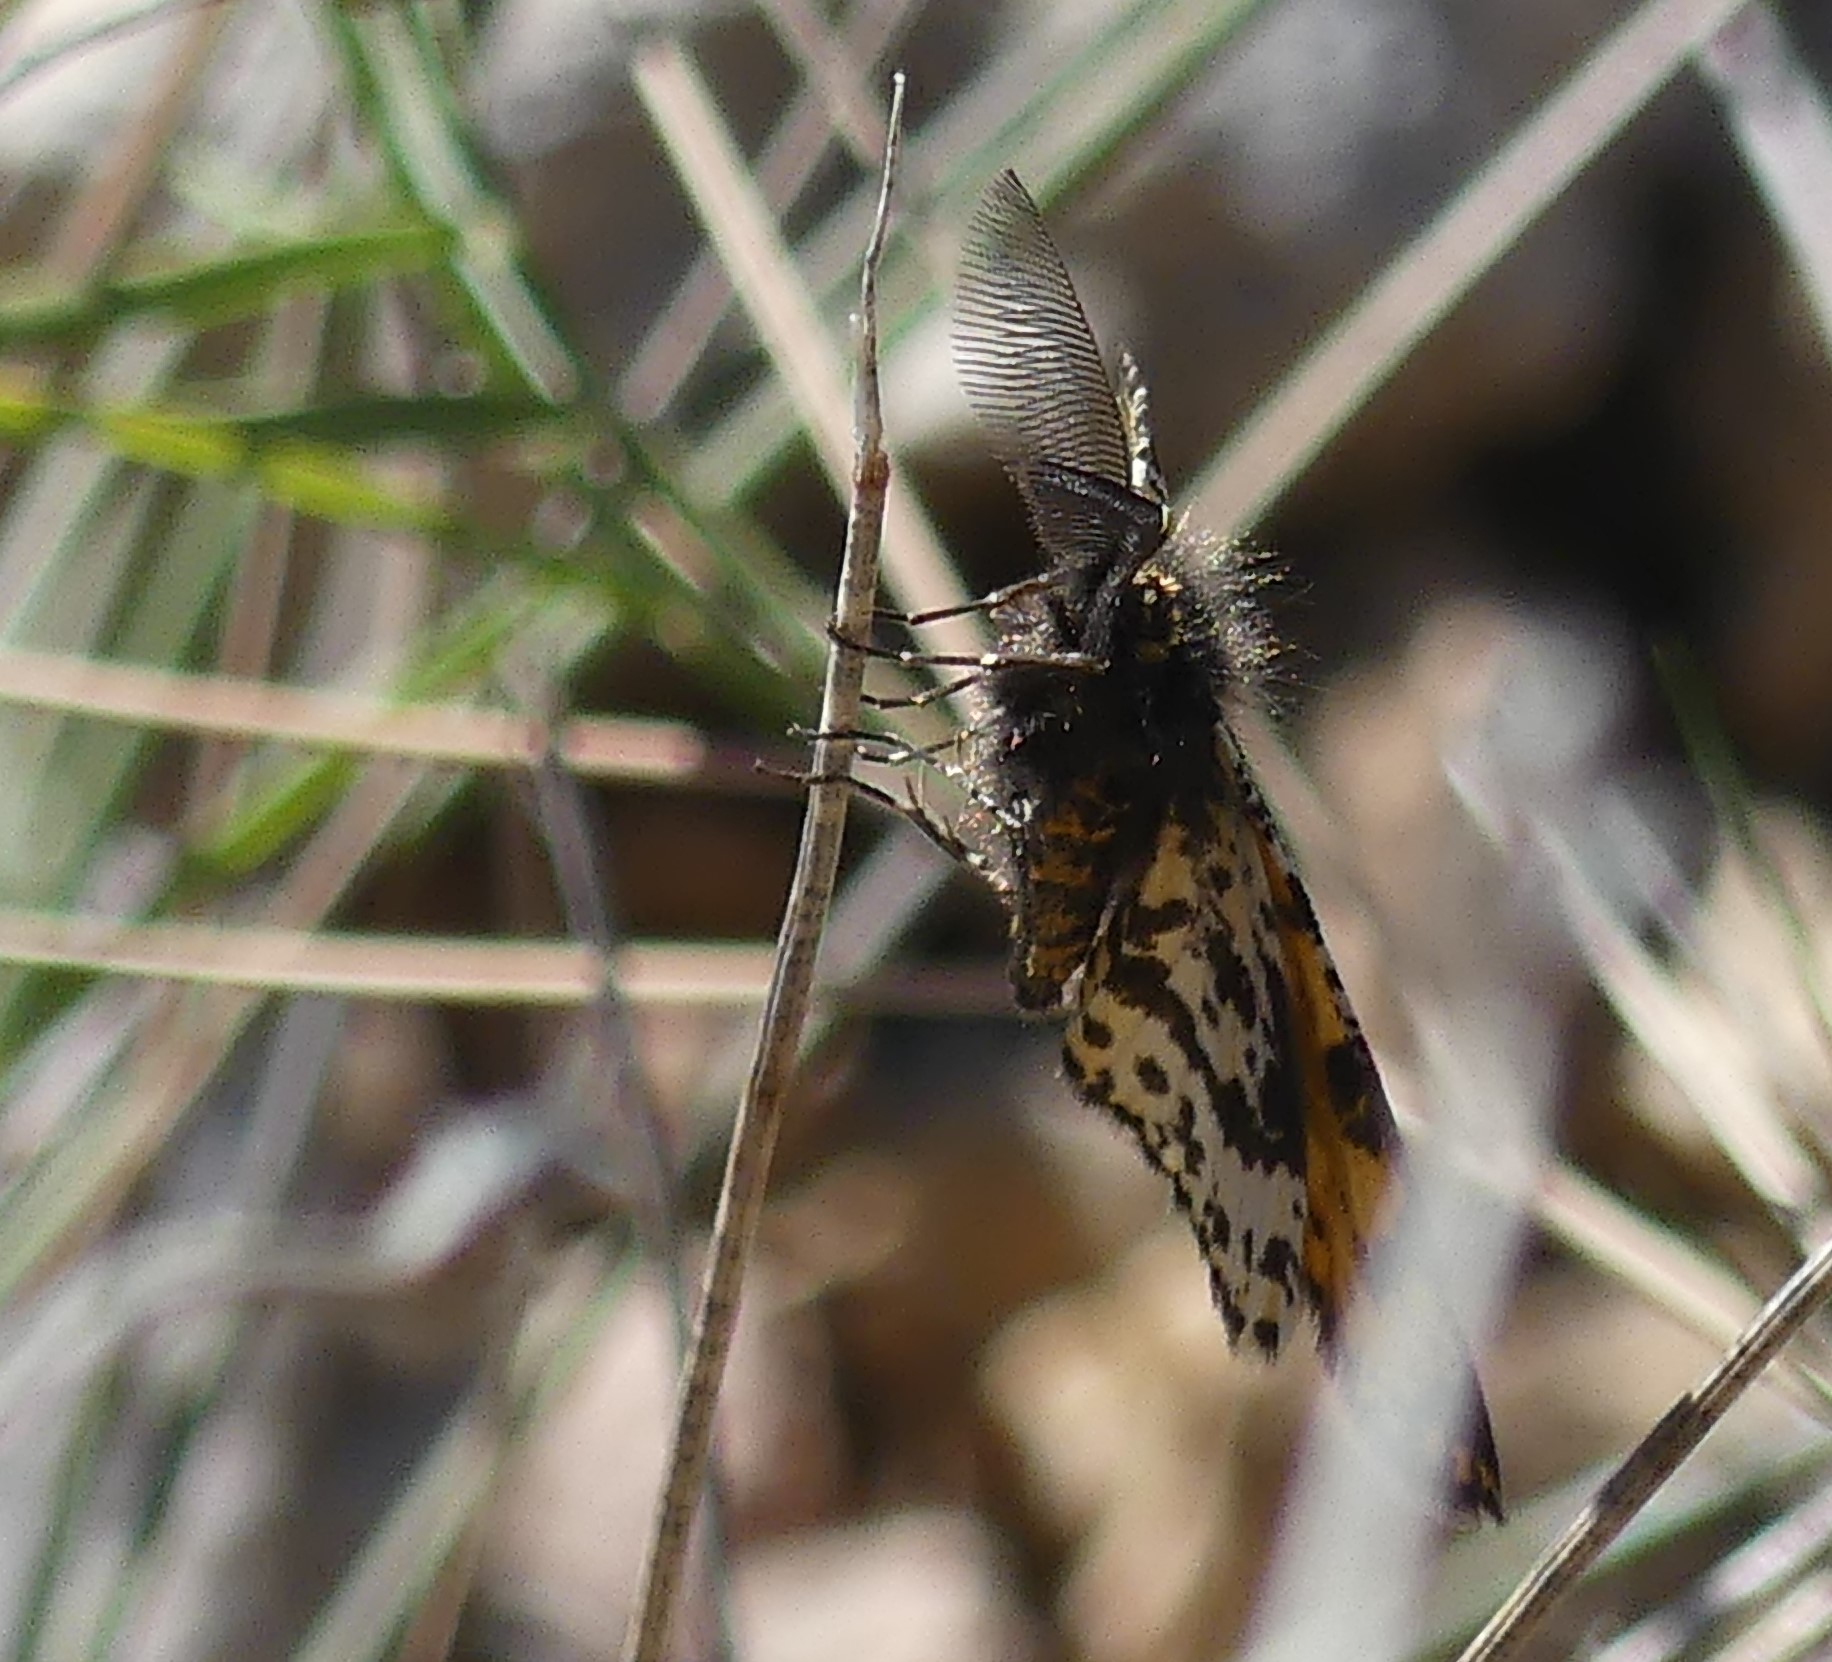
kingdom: Animalia
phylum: Arthropoda
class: Insecta
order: Lepidoptera
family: Geometridae
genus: Eurranthis
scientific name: Eurranthis plummistaria
